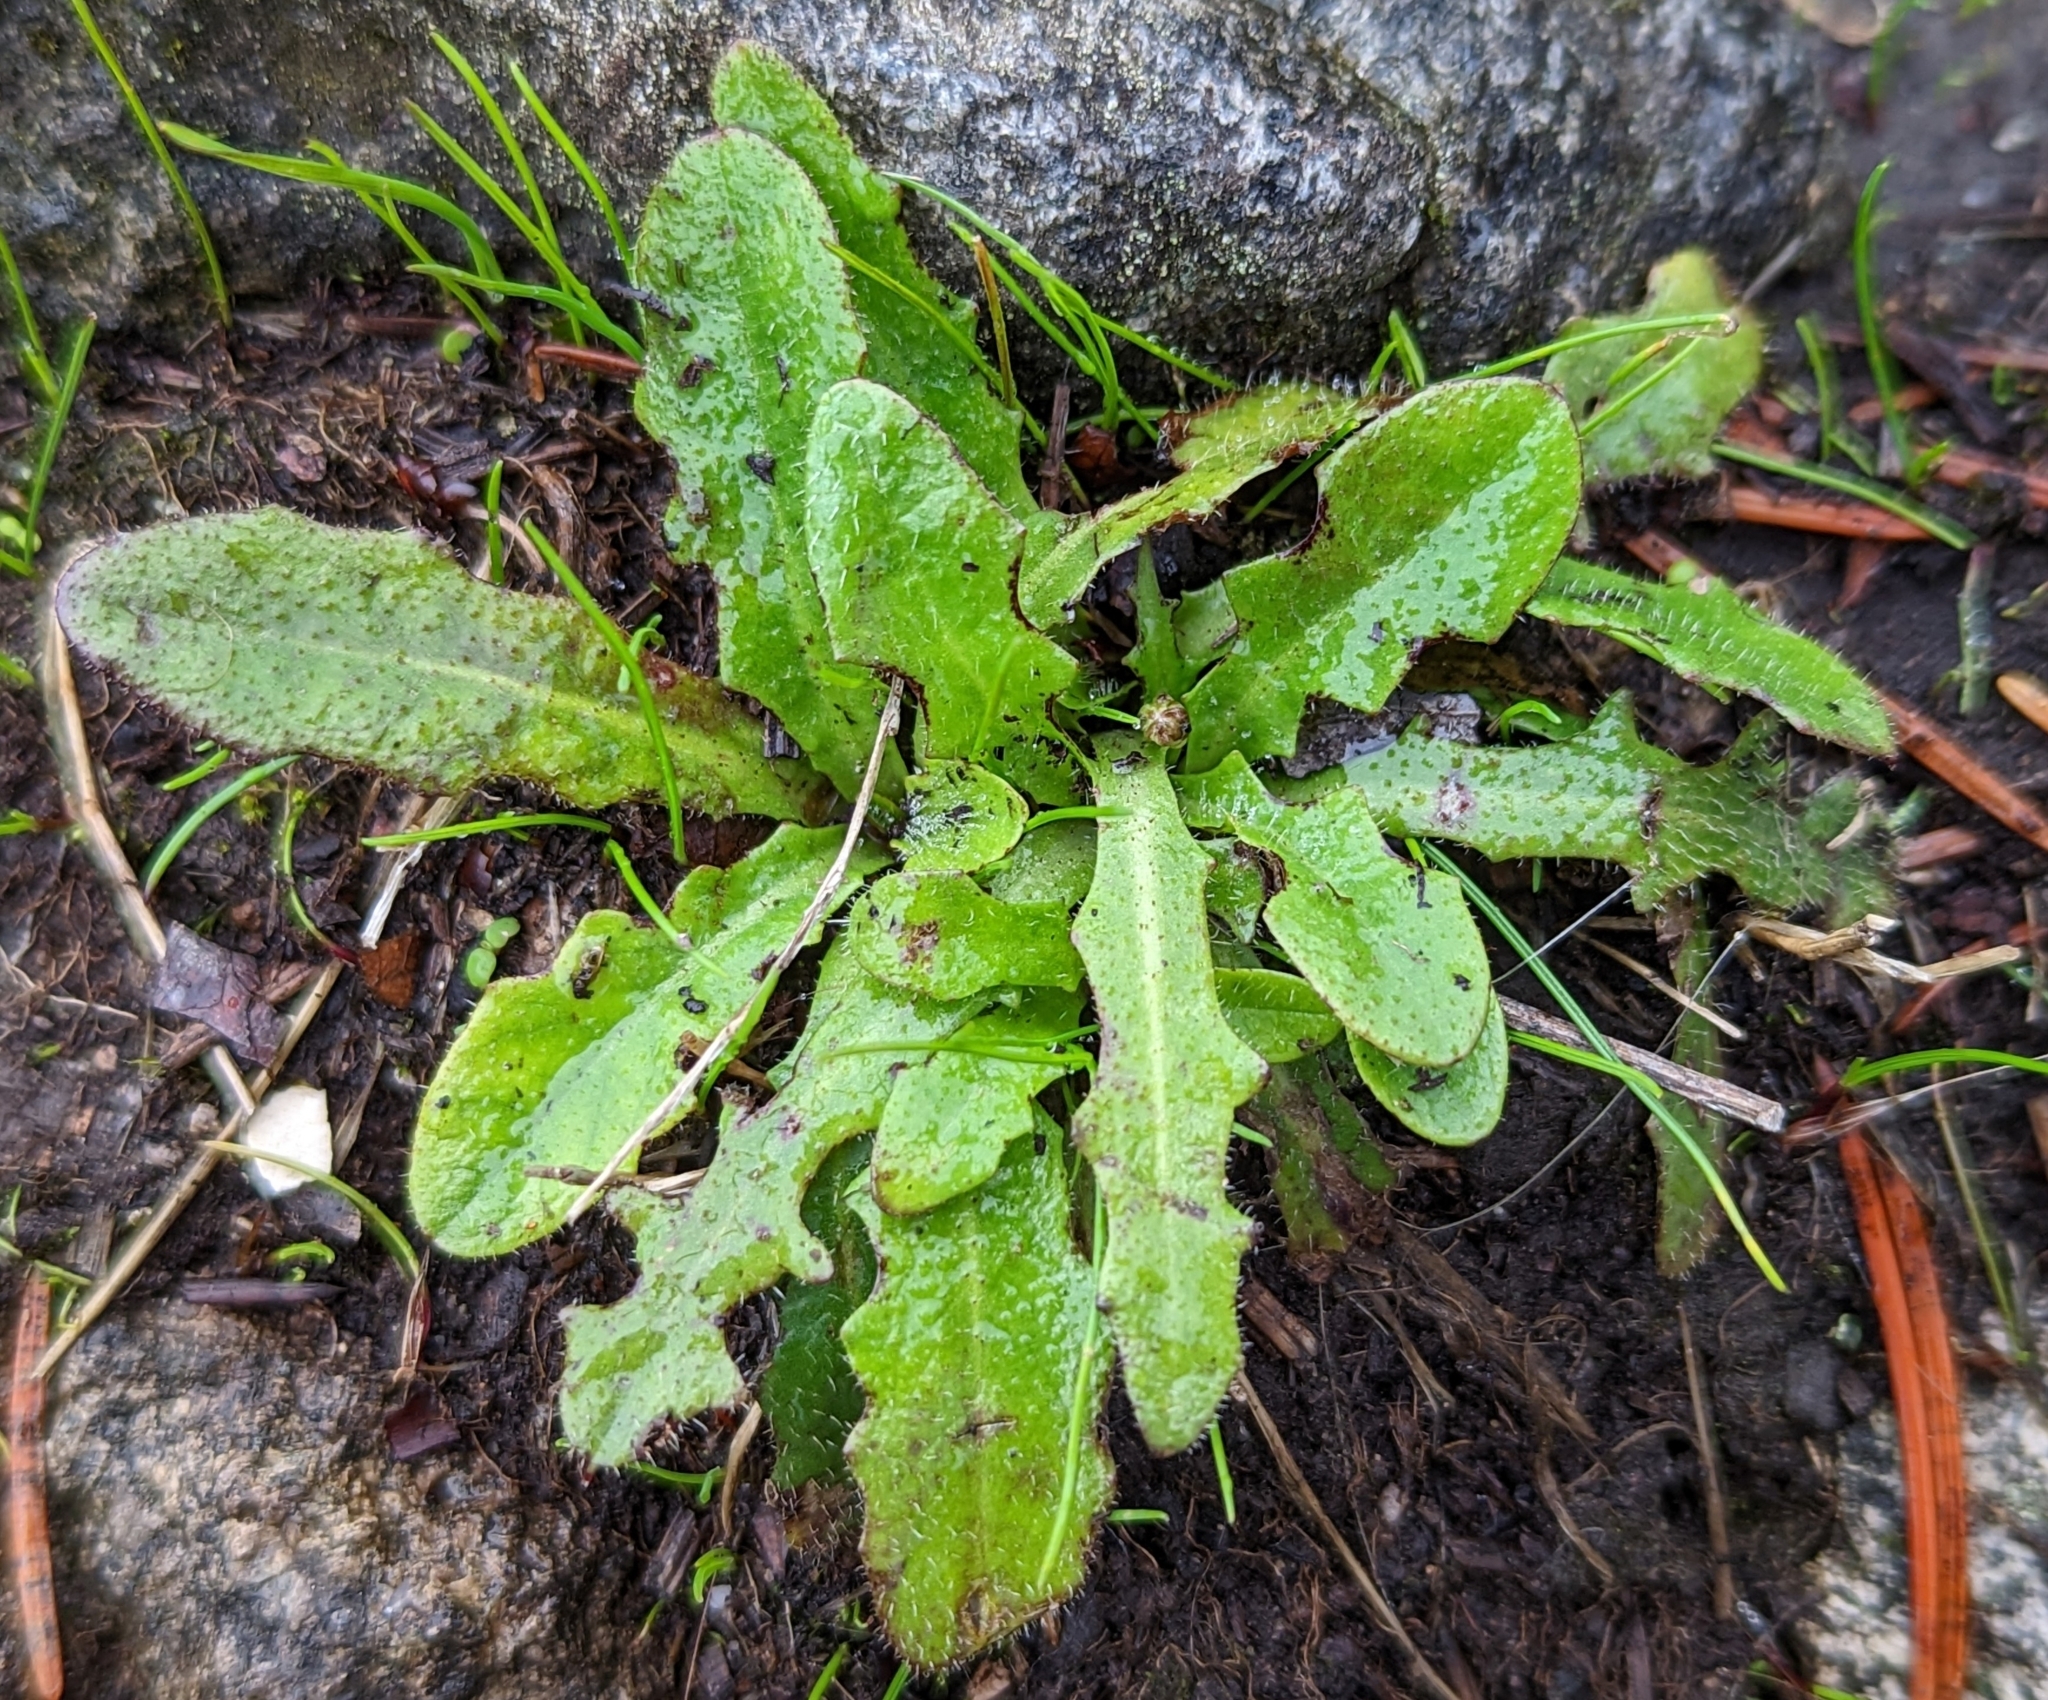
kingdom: Plantae
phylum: Tracheophyta
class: Magnoliopsida
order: Asterales
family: Asteraceae
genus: Hypochaeris
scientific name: Hypochaeris radicata
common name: Flatweed
